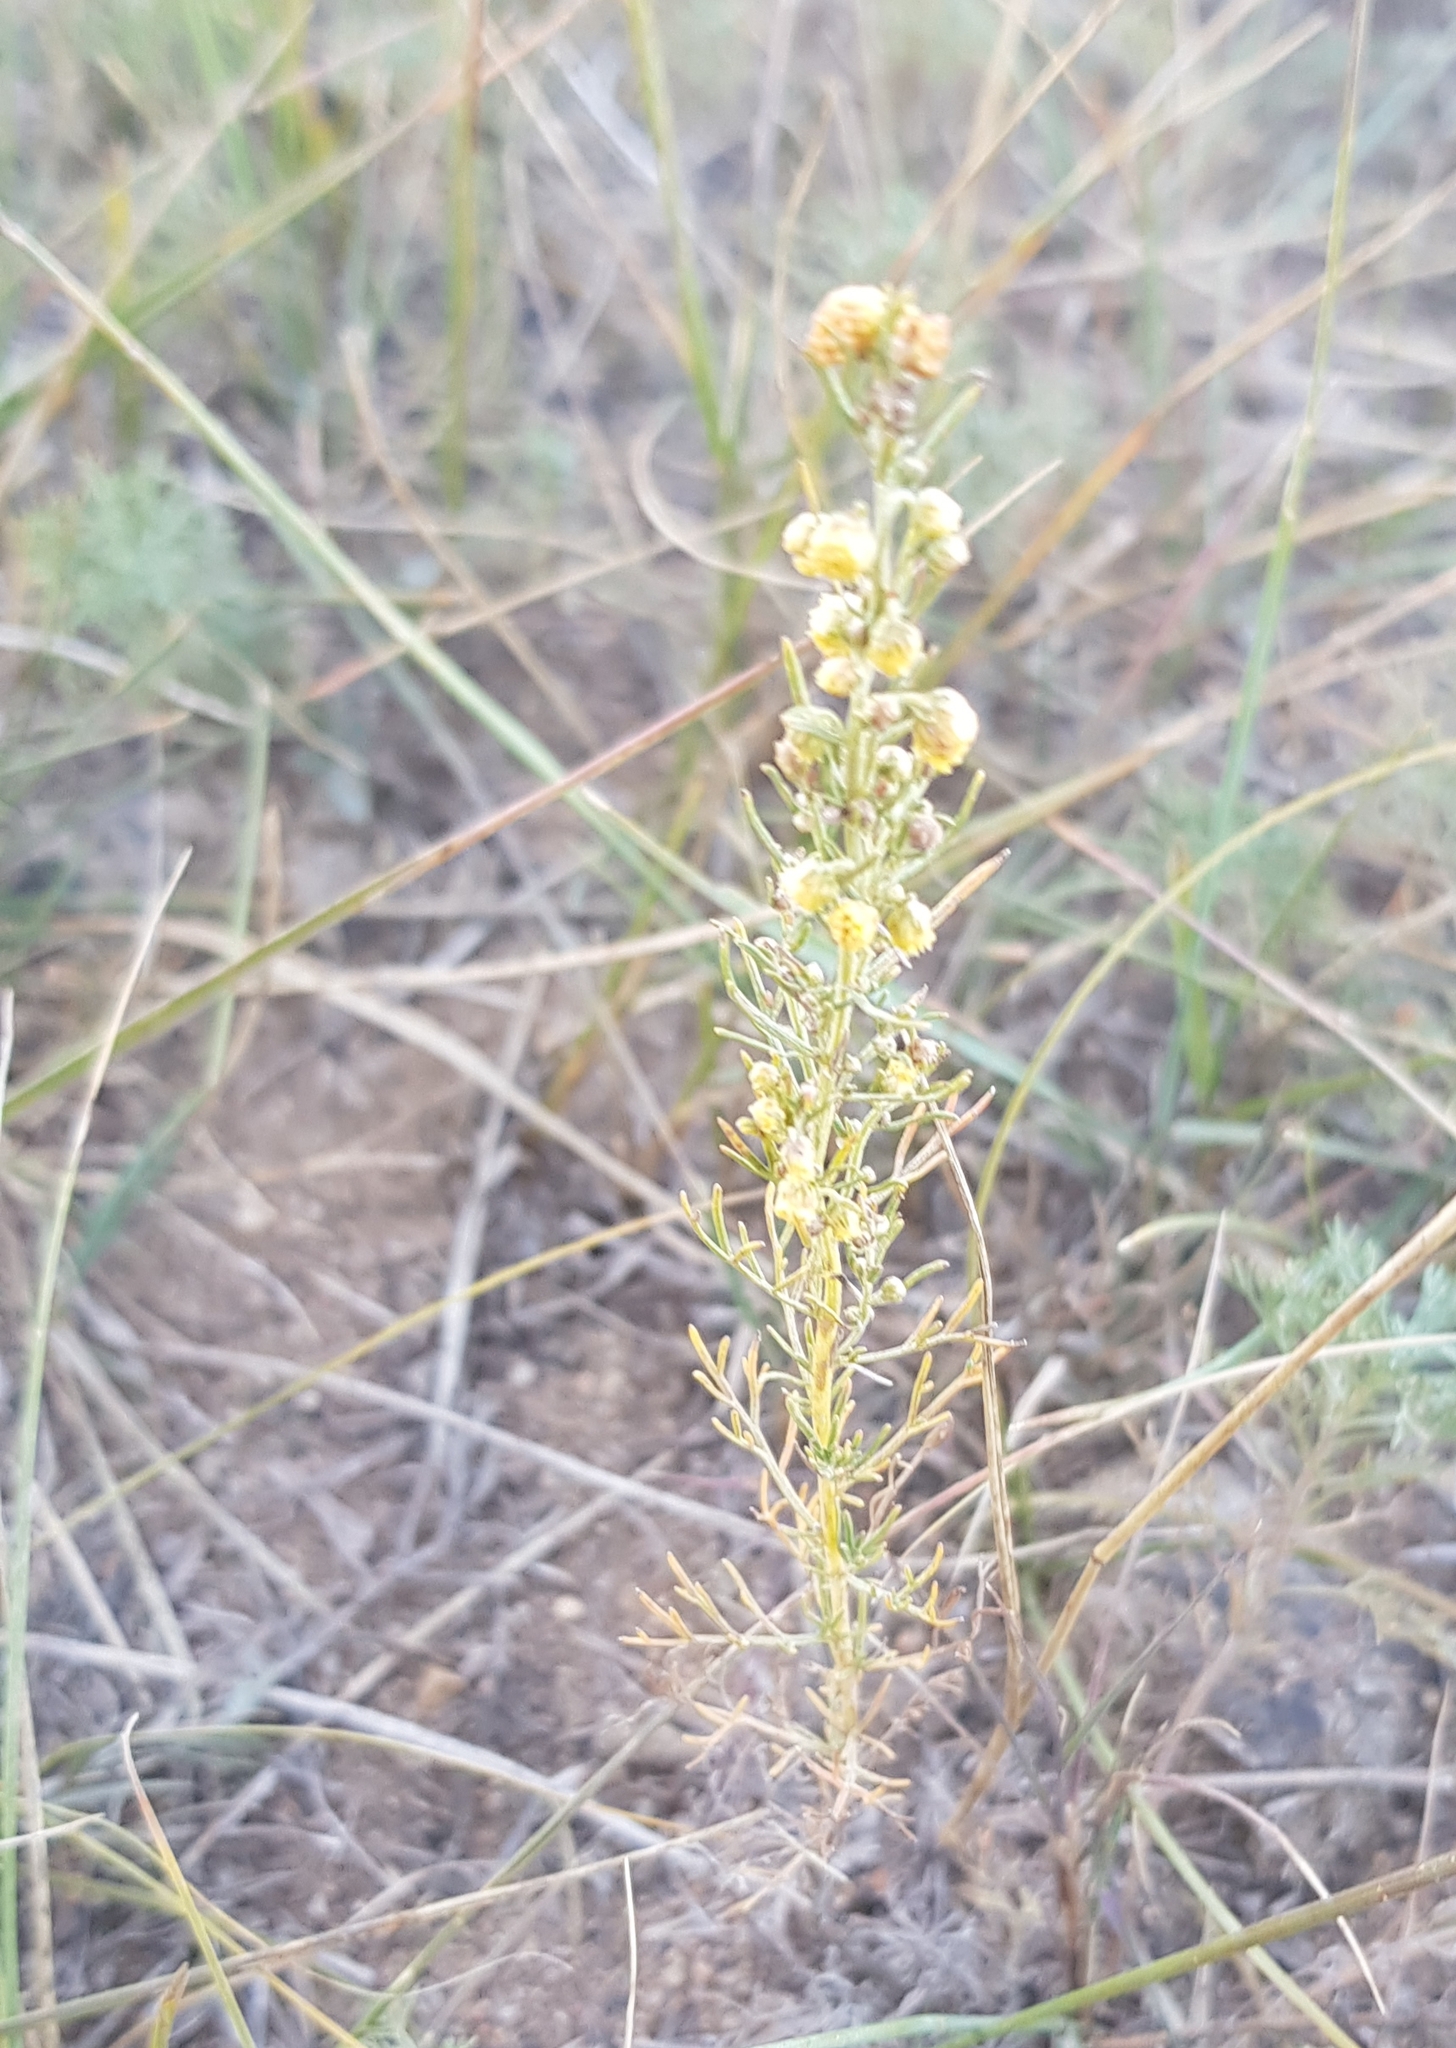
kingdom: Plantae
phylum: Tracheophyta
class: Magnoliopsida
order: Asterales
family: Asteraceae
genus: Neopallasia
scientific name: Neopallasia pectinata
